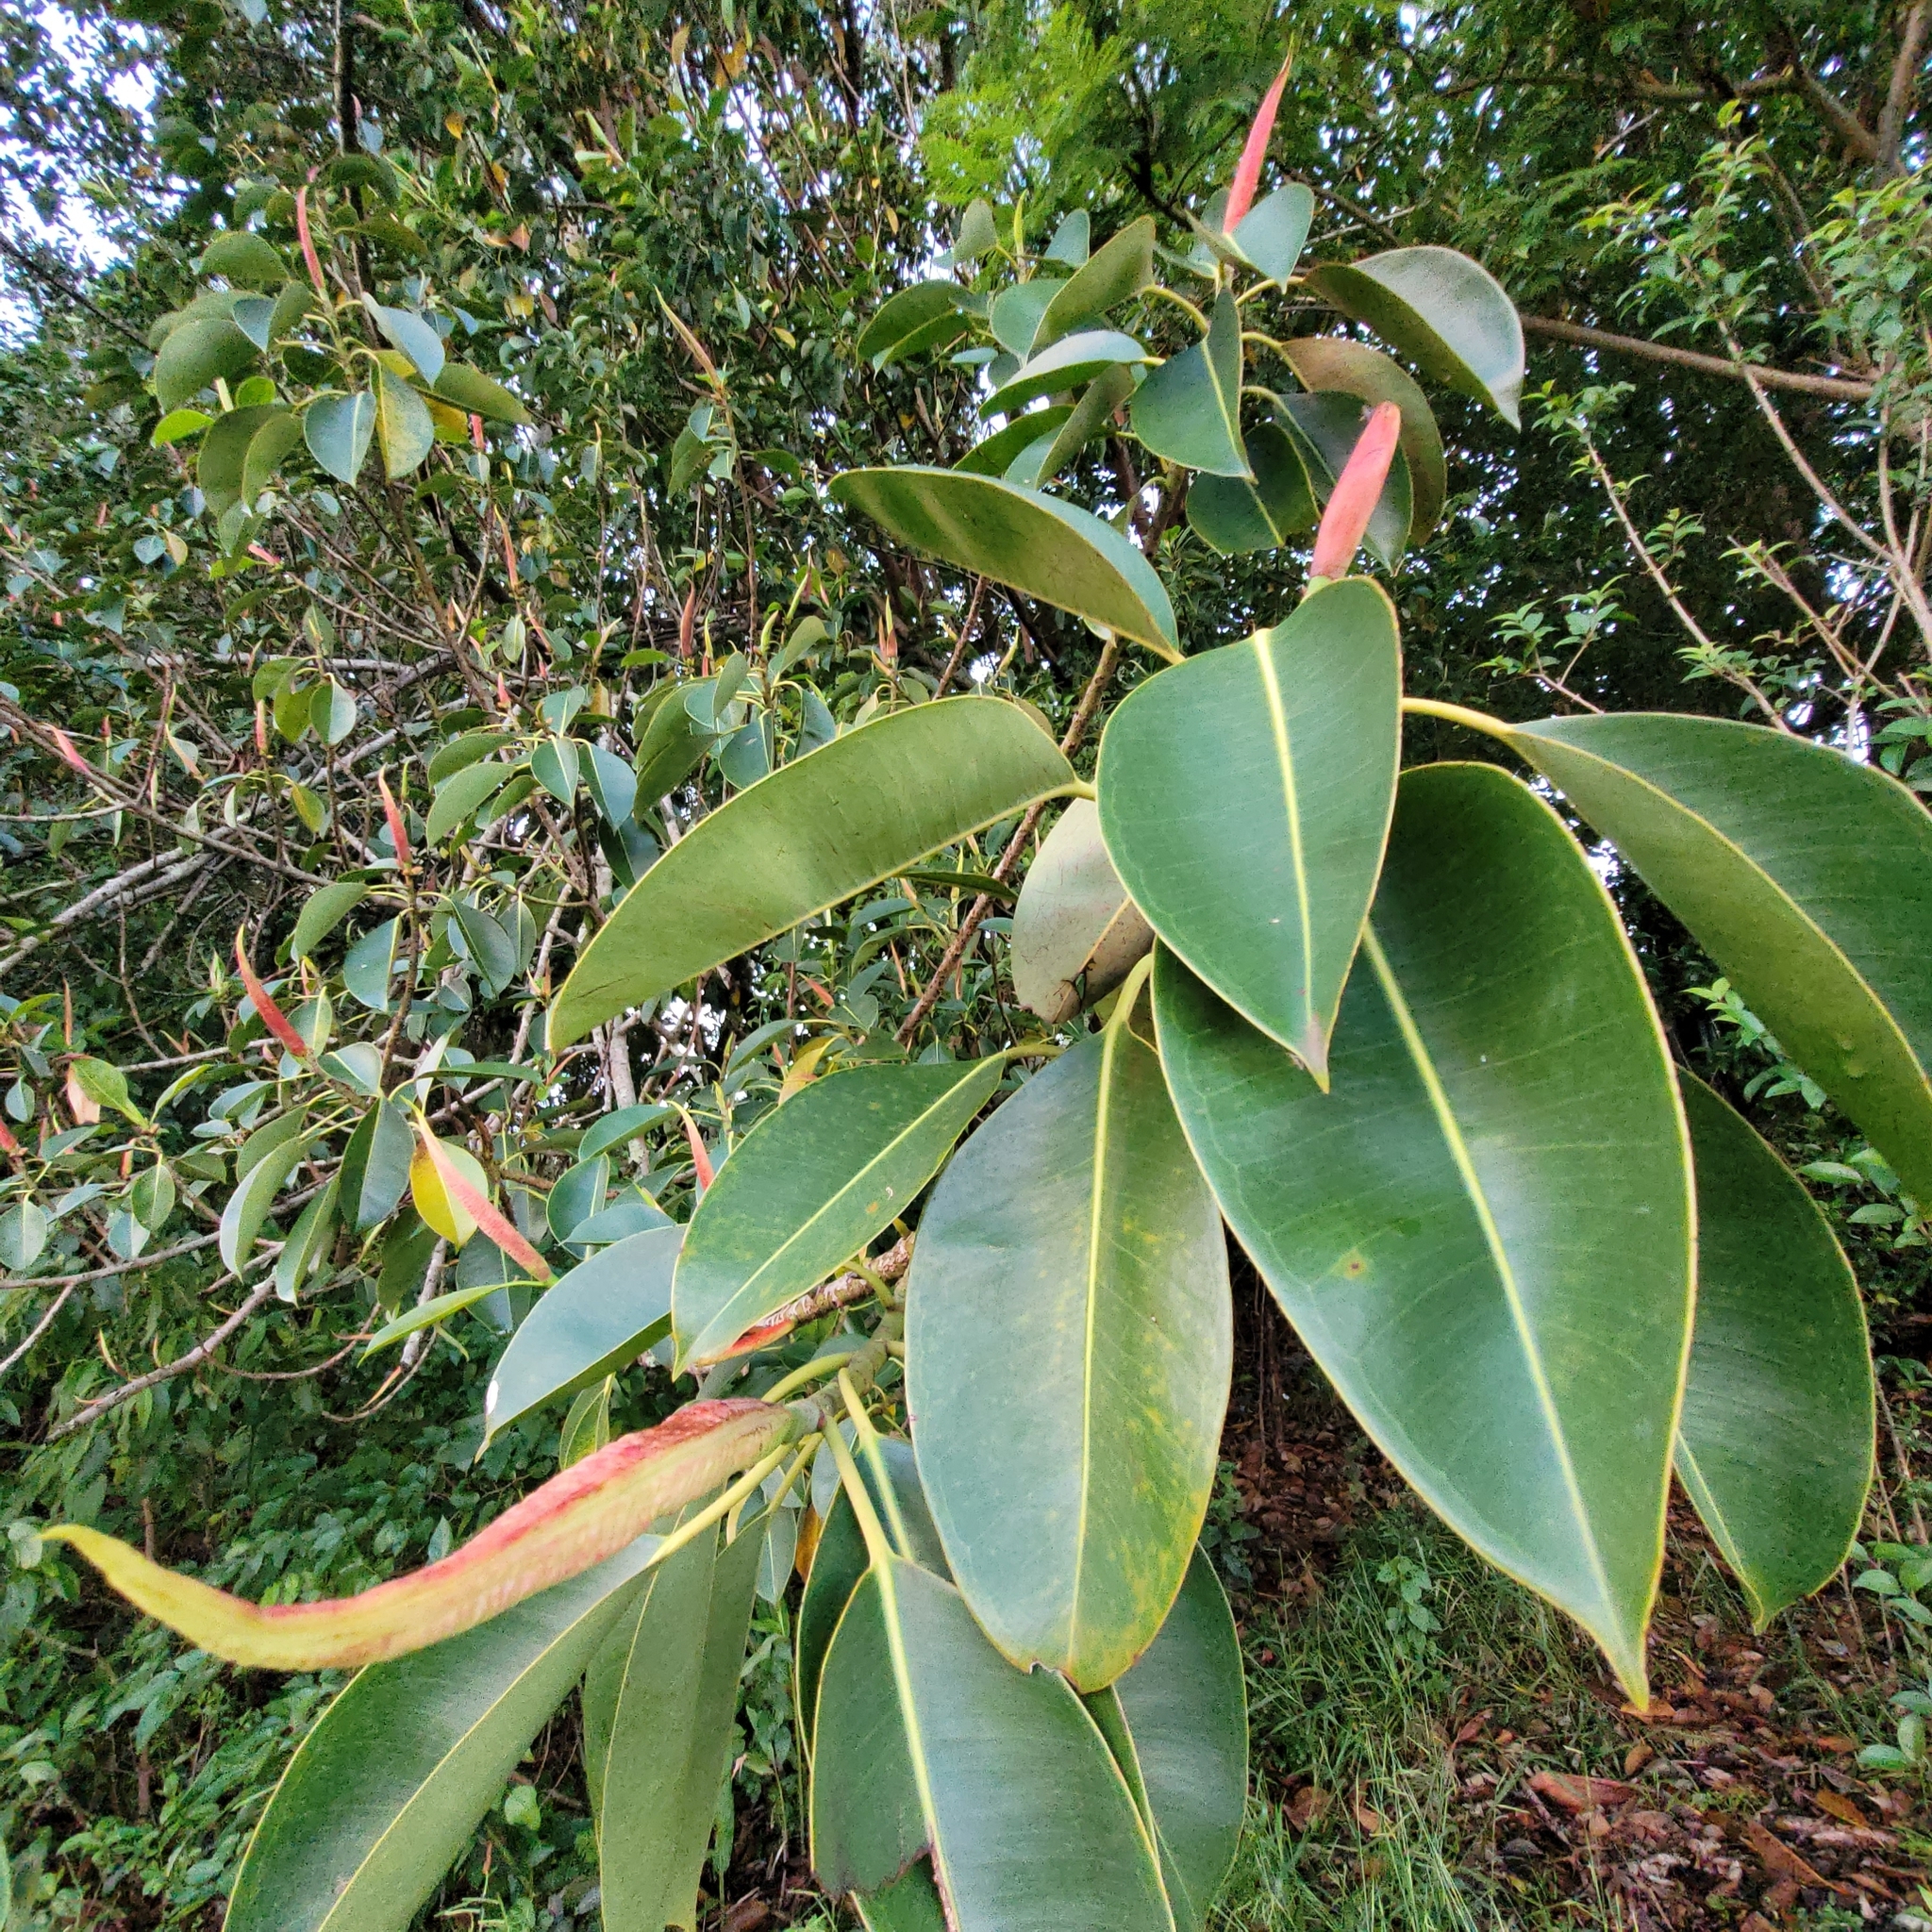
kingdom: Plantae
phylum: Tracheophyta
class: Magnoliopsida
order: Rosales
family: Moraceae
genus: Ficus
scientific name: Ficus elastica
